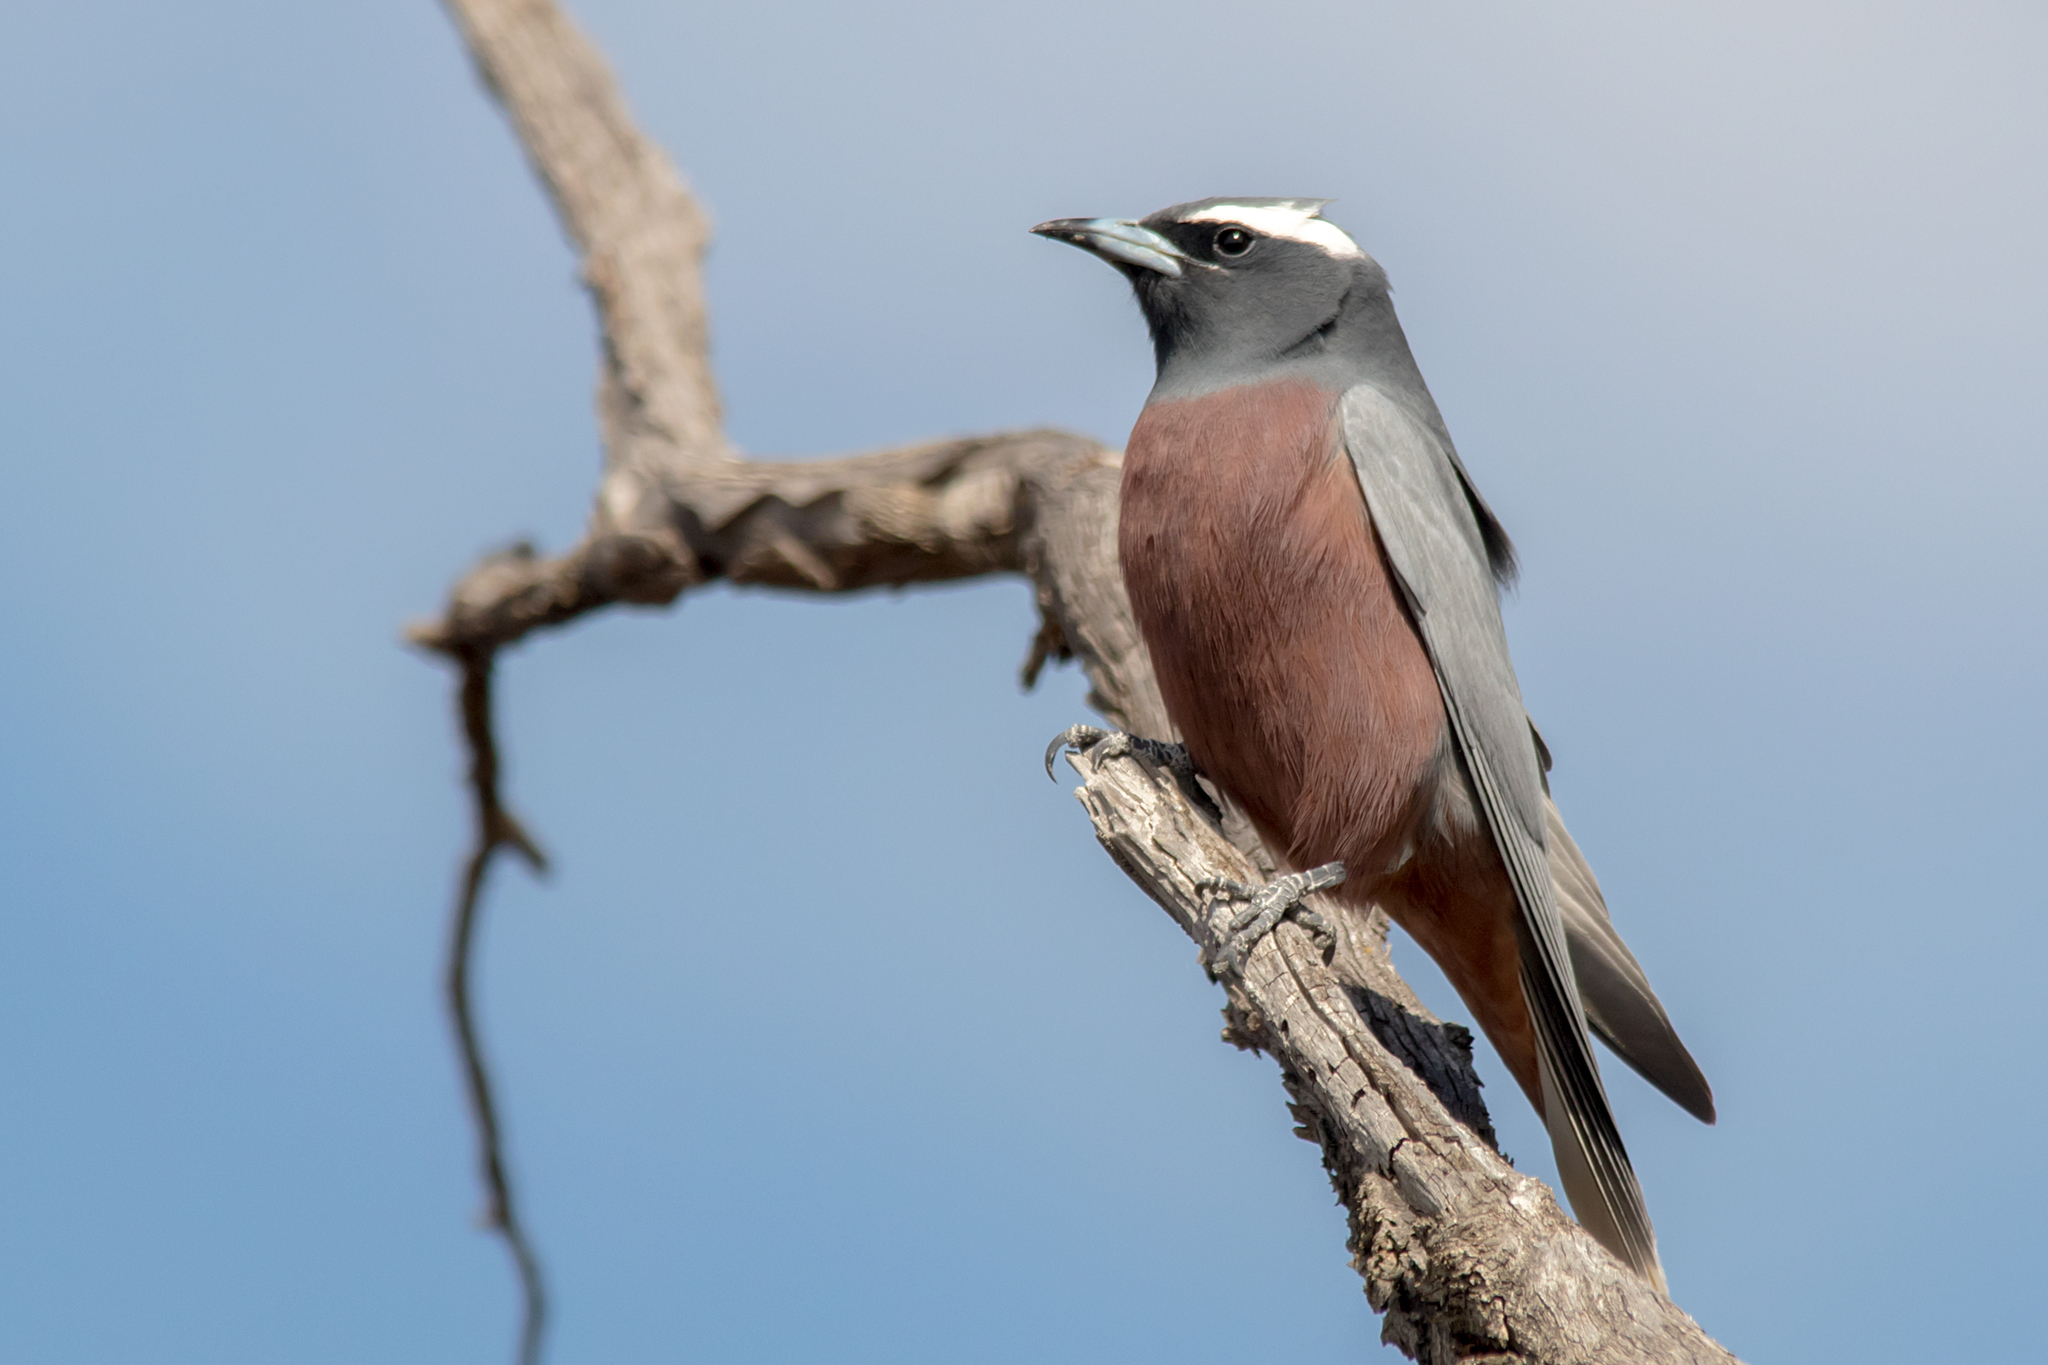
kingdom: Animalia
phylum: Chordata
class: Aves
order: Passeriformes
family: Artamidae
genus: Artamus
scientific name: Artamus superciliosus
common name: White-browed woodswallow
